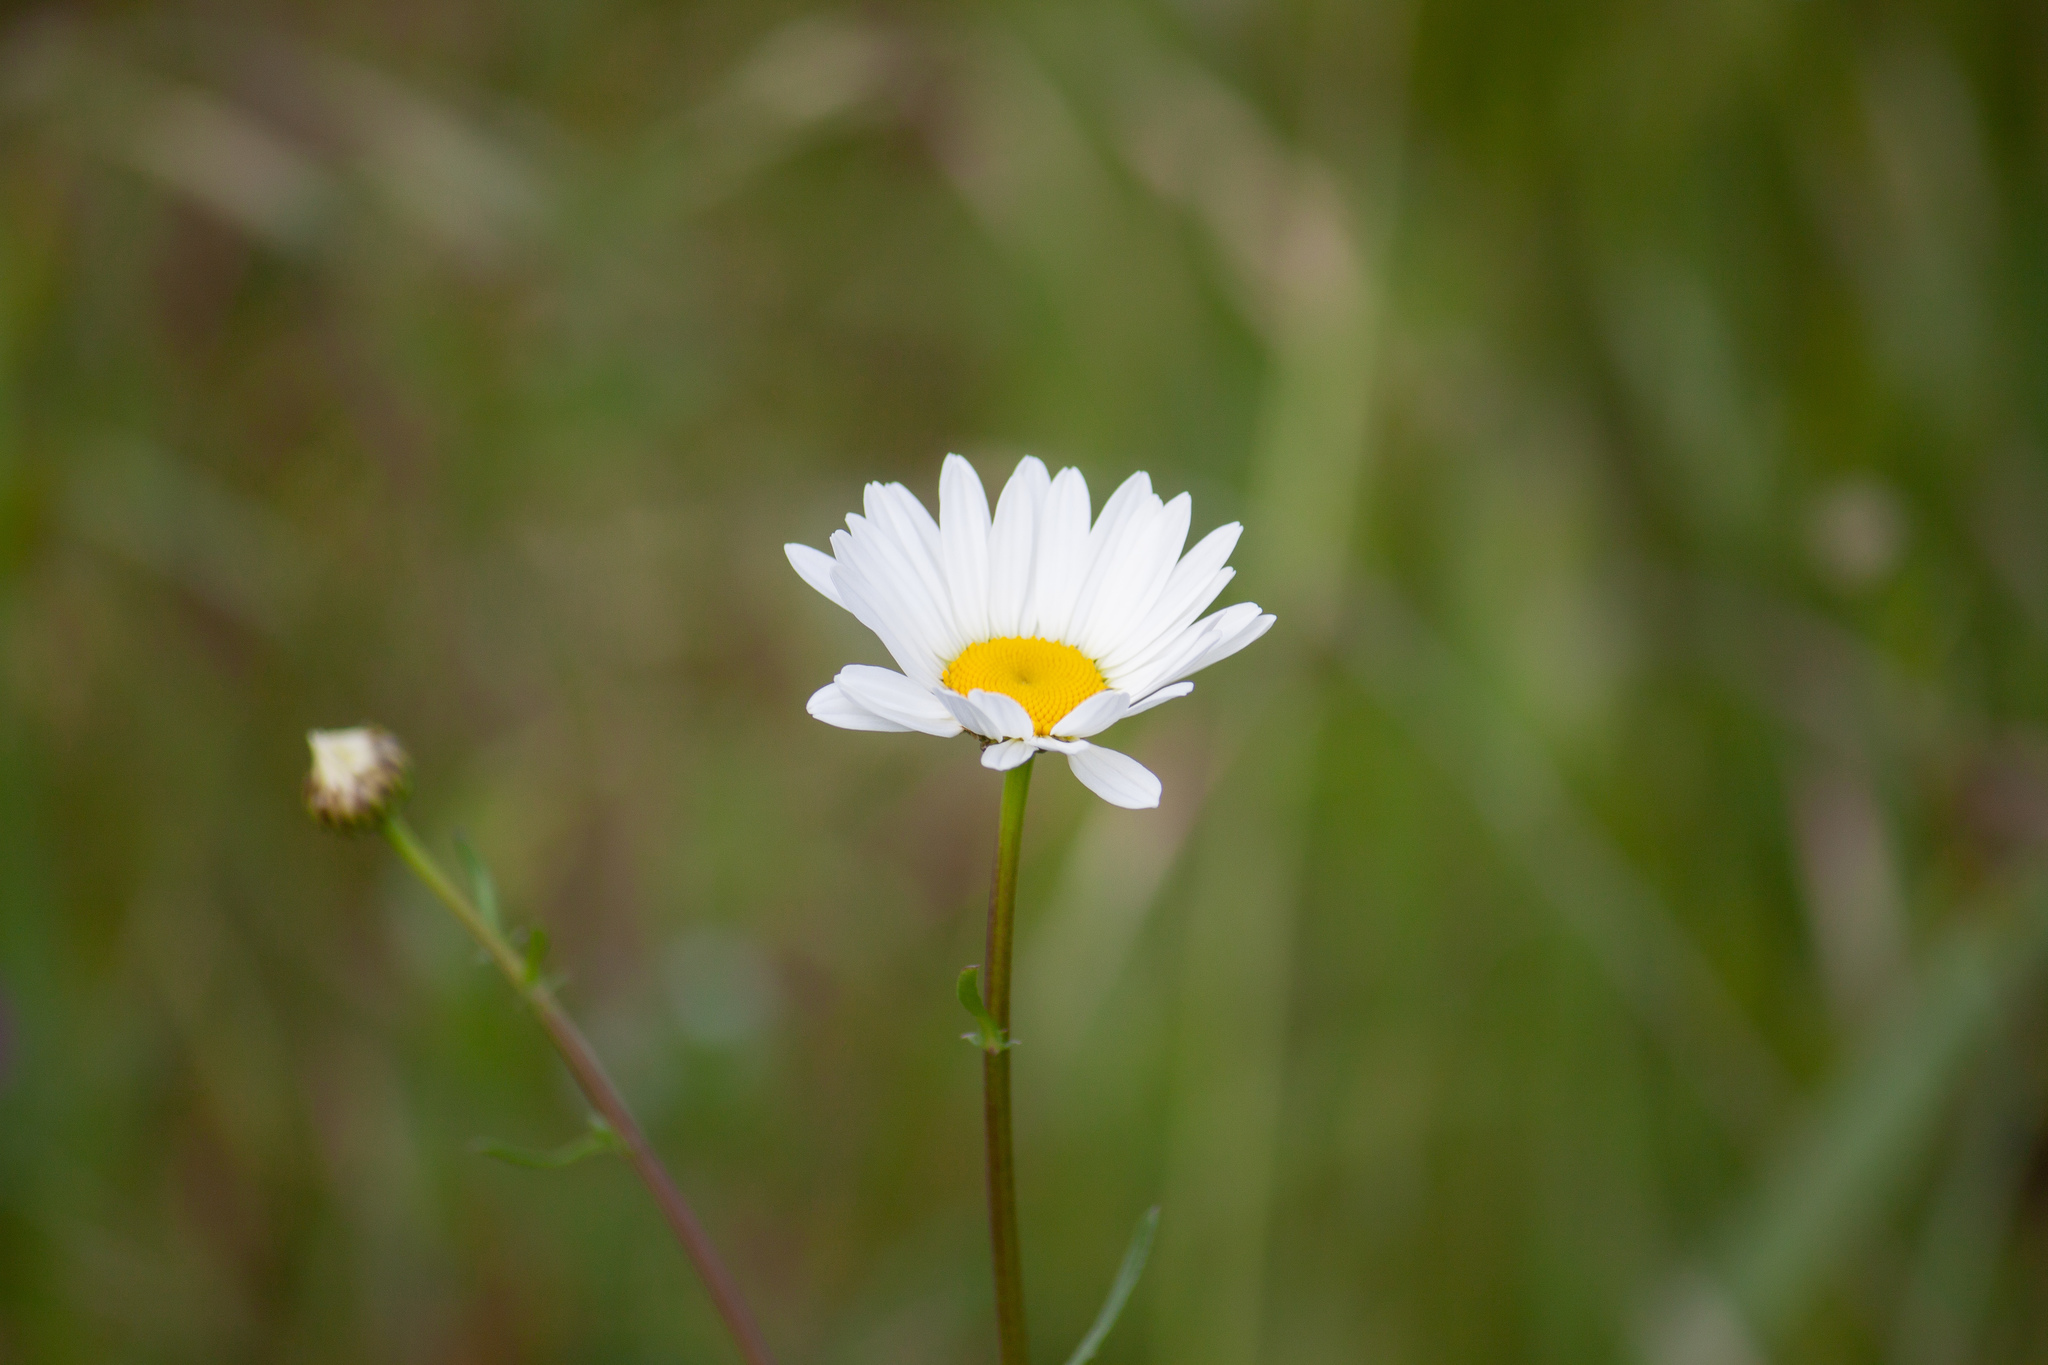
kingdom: Plantae
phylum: Tracheophyta
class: Magnoliopsida
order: Asterales
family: Asteraceae
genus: Leucanthemum
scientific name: Leucanthemum vulgare
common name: Oxeye daisy
